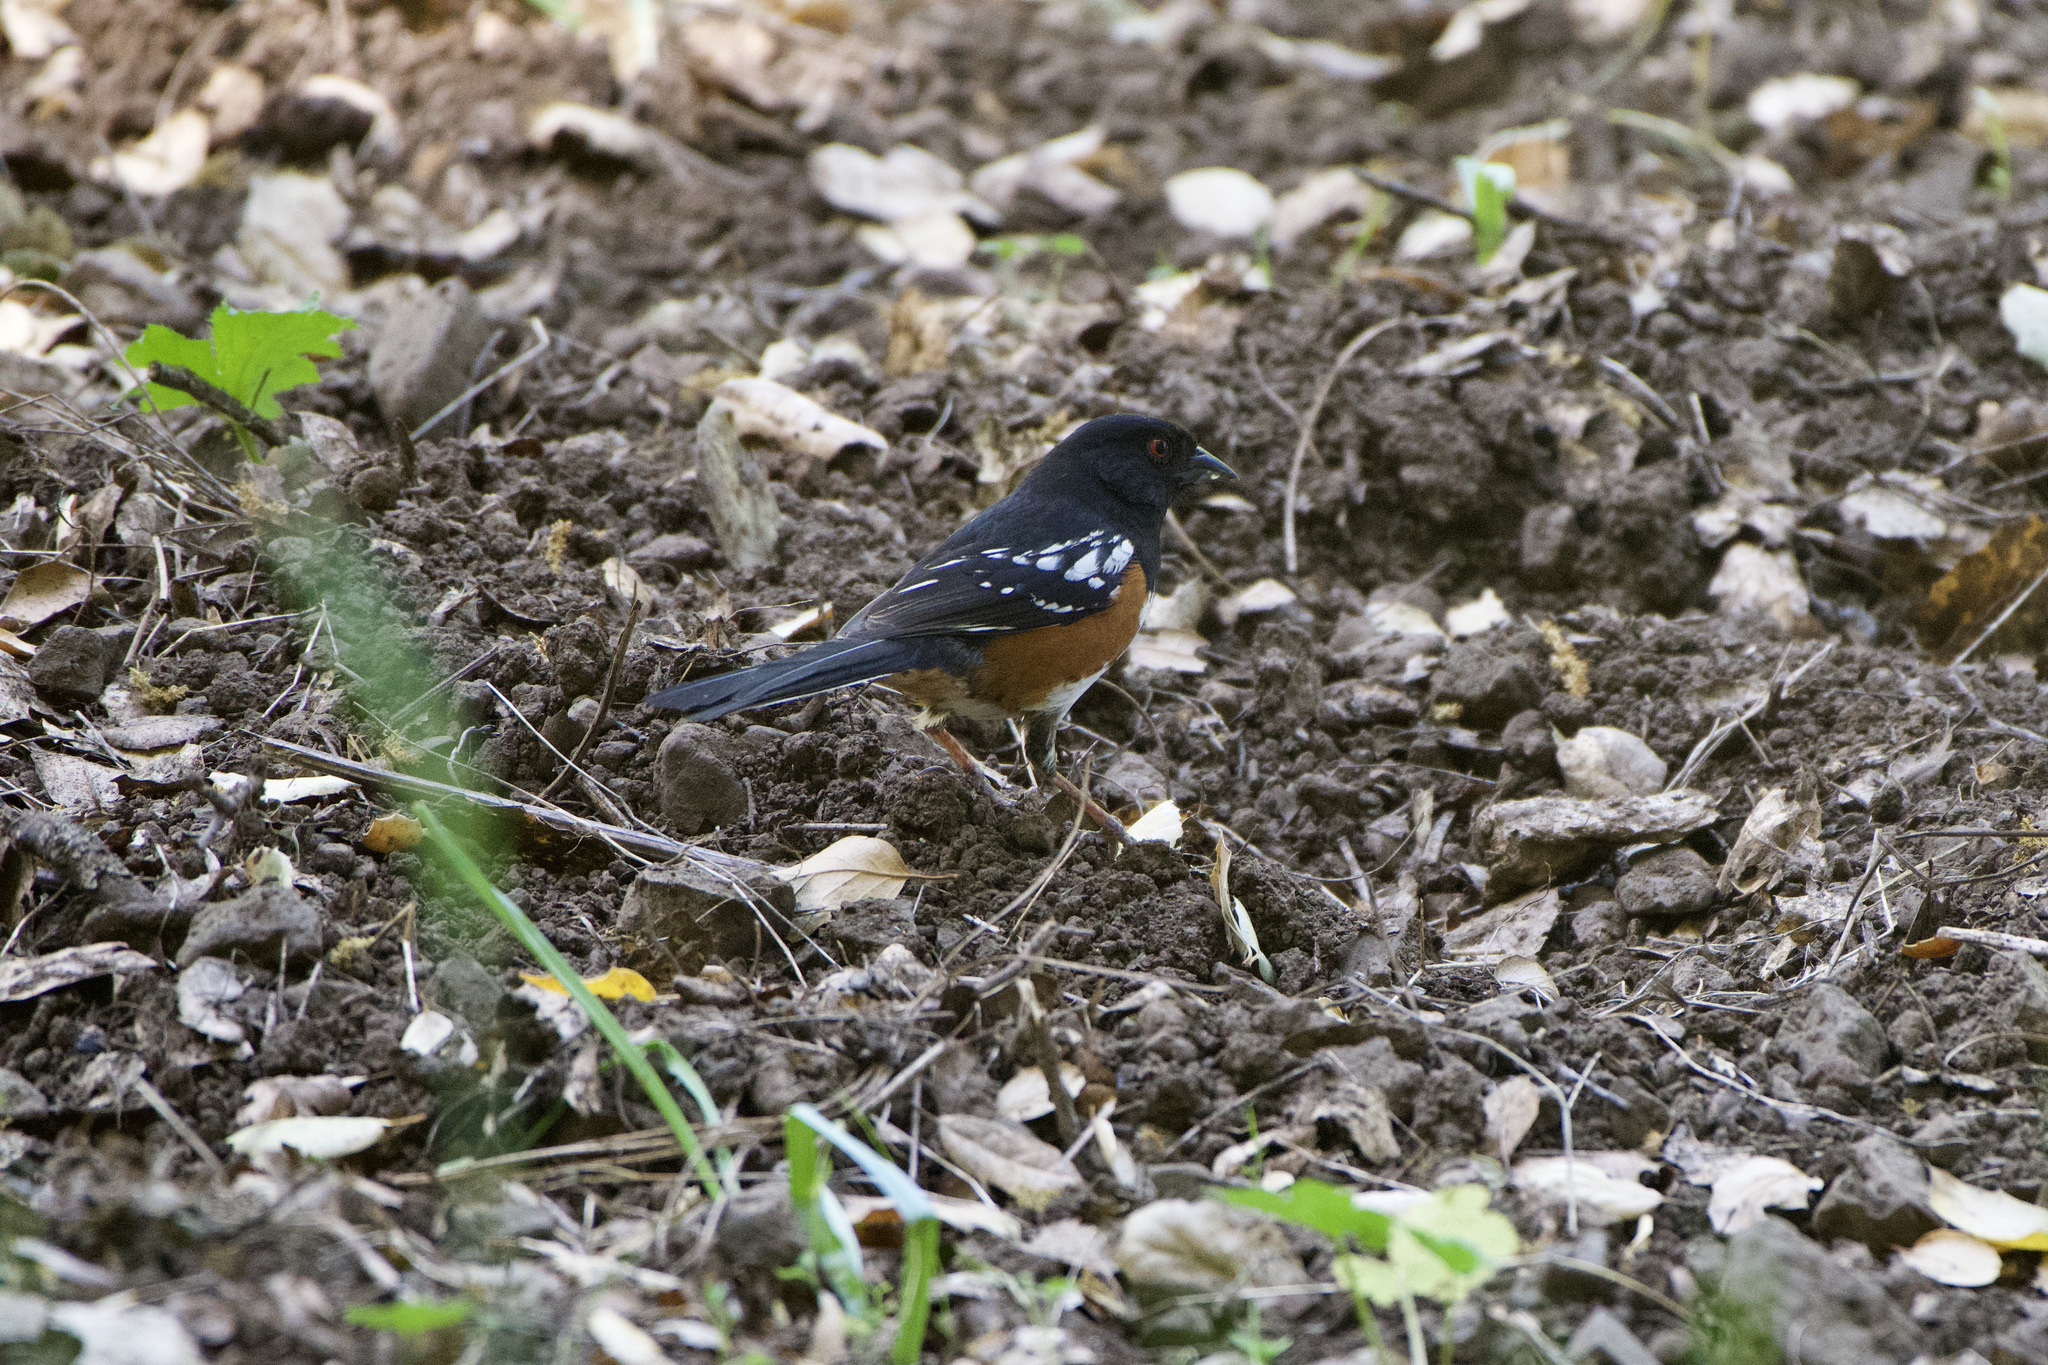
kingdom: Animalia
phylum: Chordata
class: Aves
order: Passeriformes
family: Passerellidae
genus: Pipilo
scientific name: Pipilo maculatus
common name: Spotted towhee
